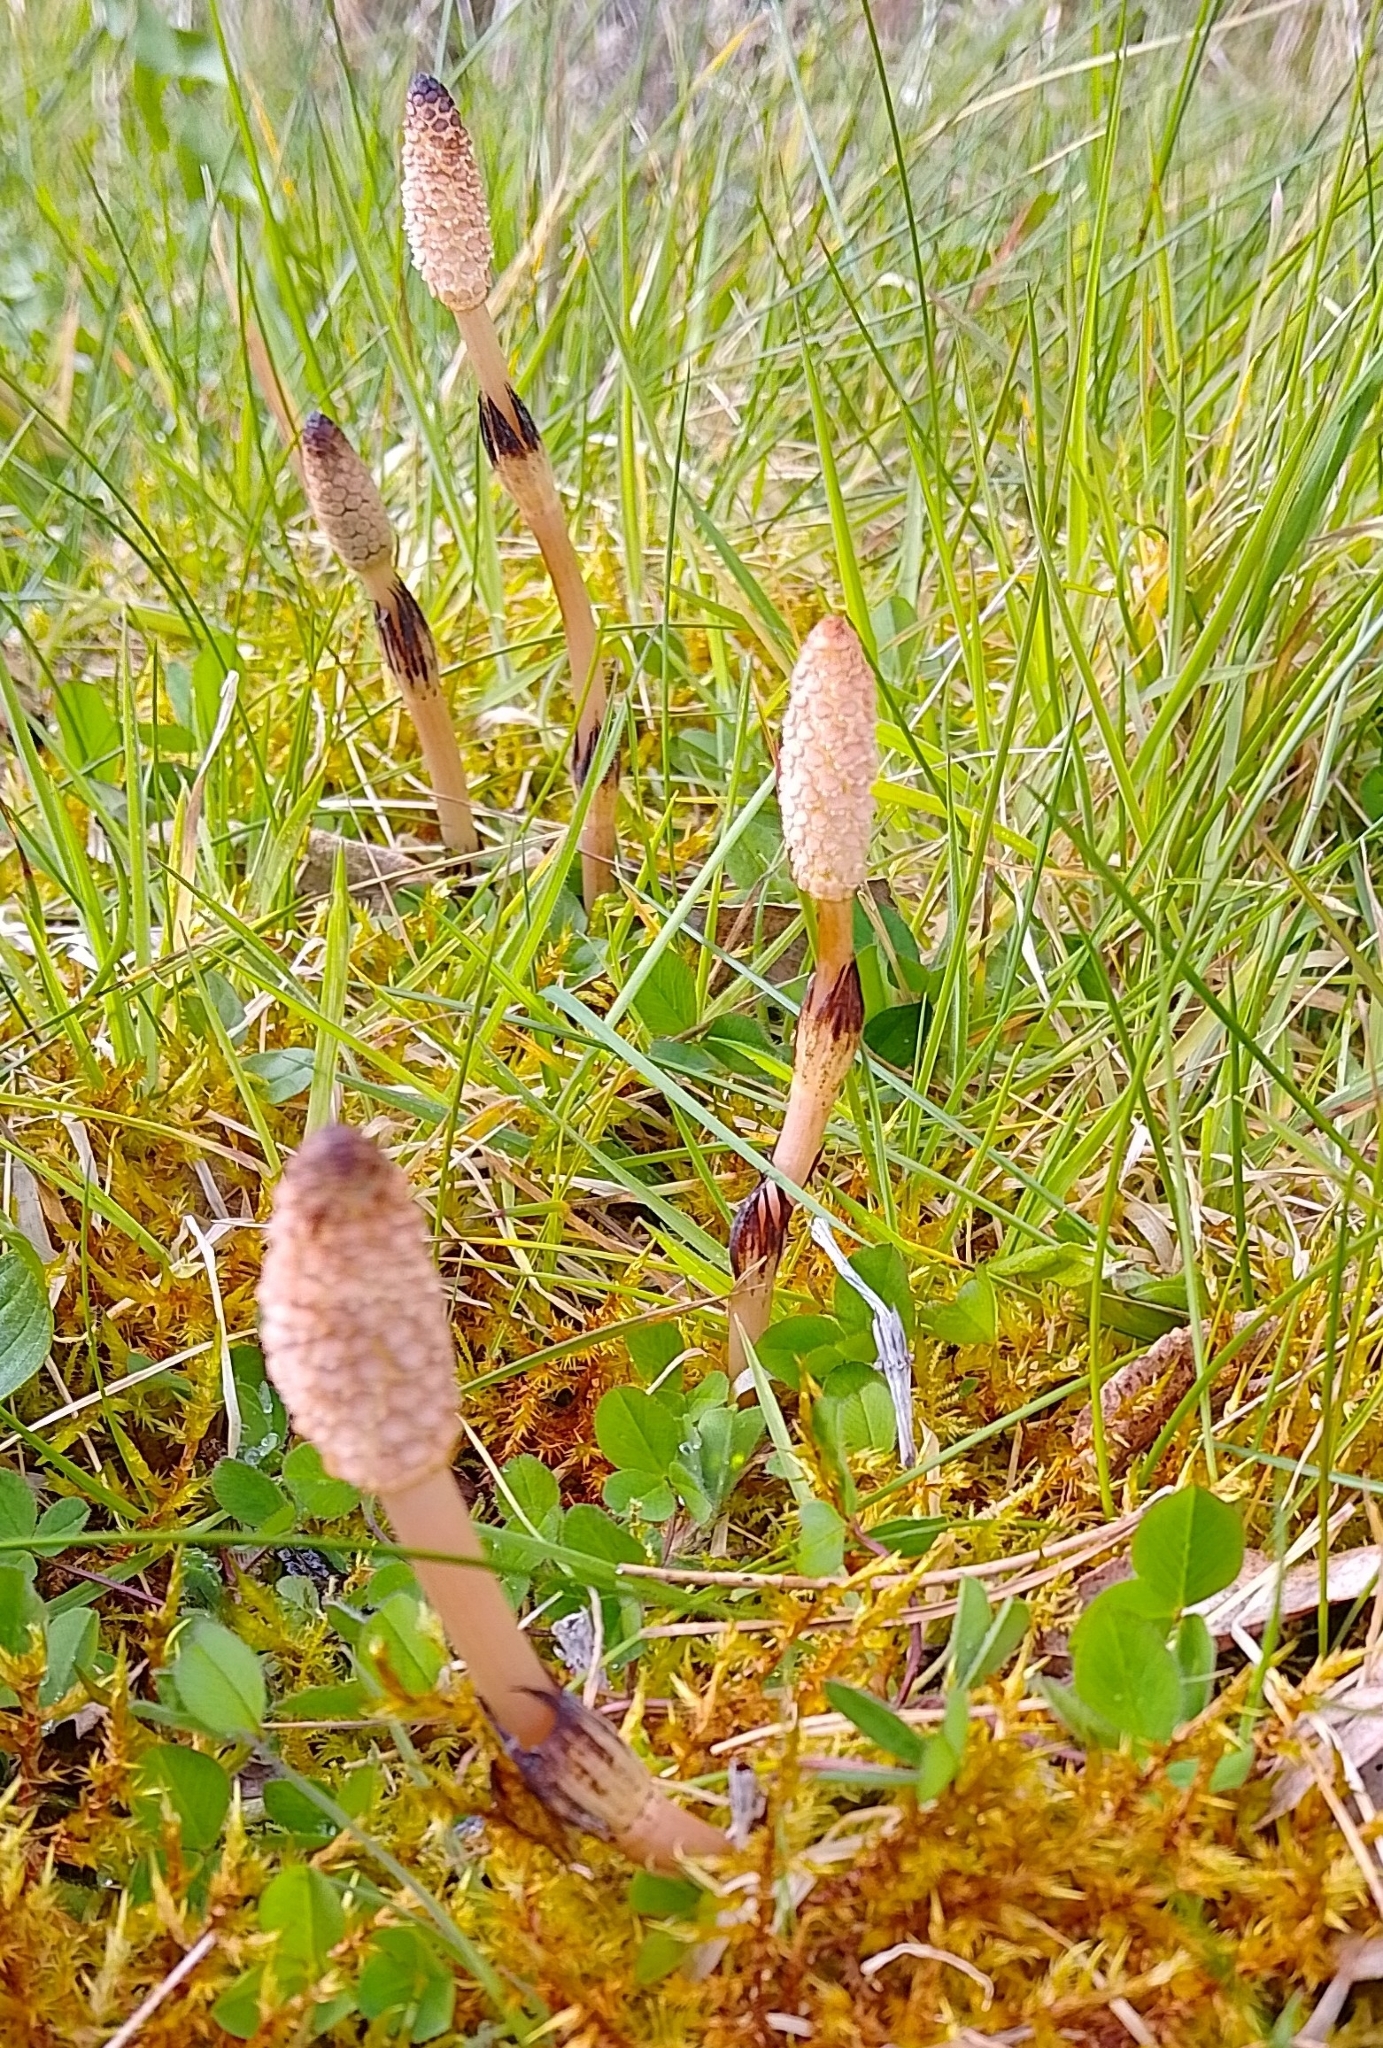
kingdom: Plantae
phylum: Tracheophyta
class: Polypodiopsida
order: Equisetales
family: Equisetaceae
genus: Equisetum
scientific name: Equisetum arvense
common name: Field horsetail
